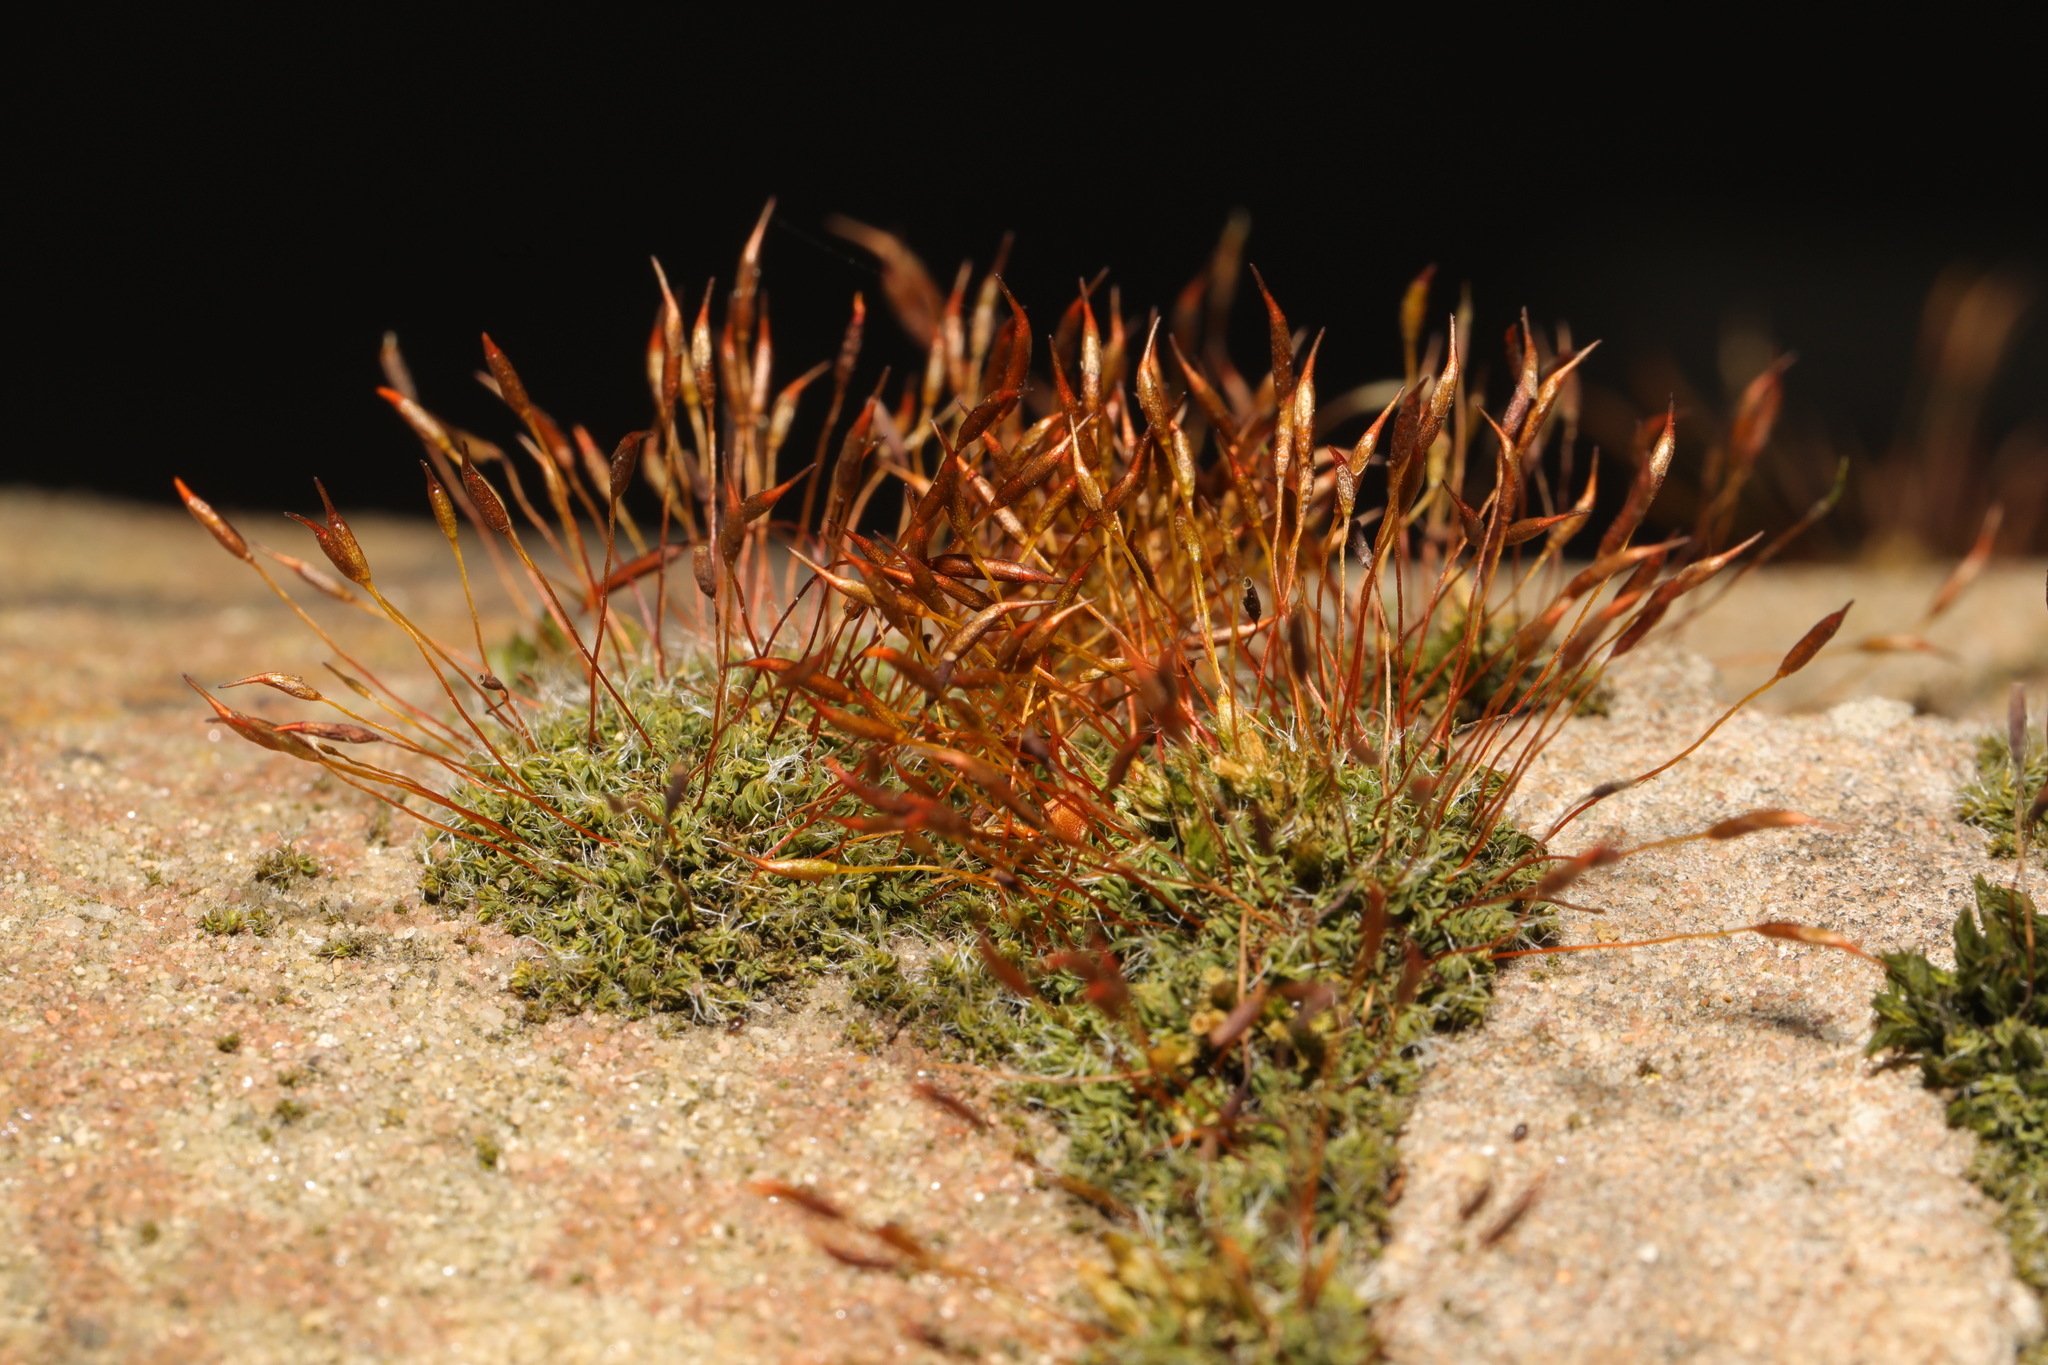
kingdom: Plantae
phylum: Bryophyta
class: Bryopsida
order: Pottiales
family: Pottiaceae
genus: Tortula
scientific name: Tortula muralis
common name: Wall screw-moss
